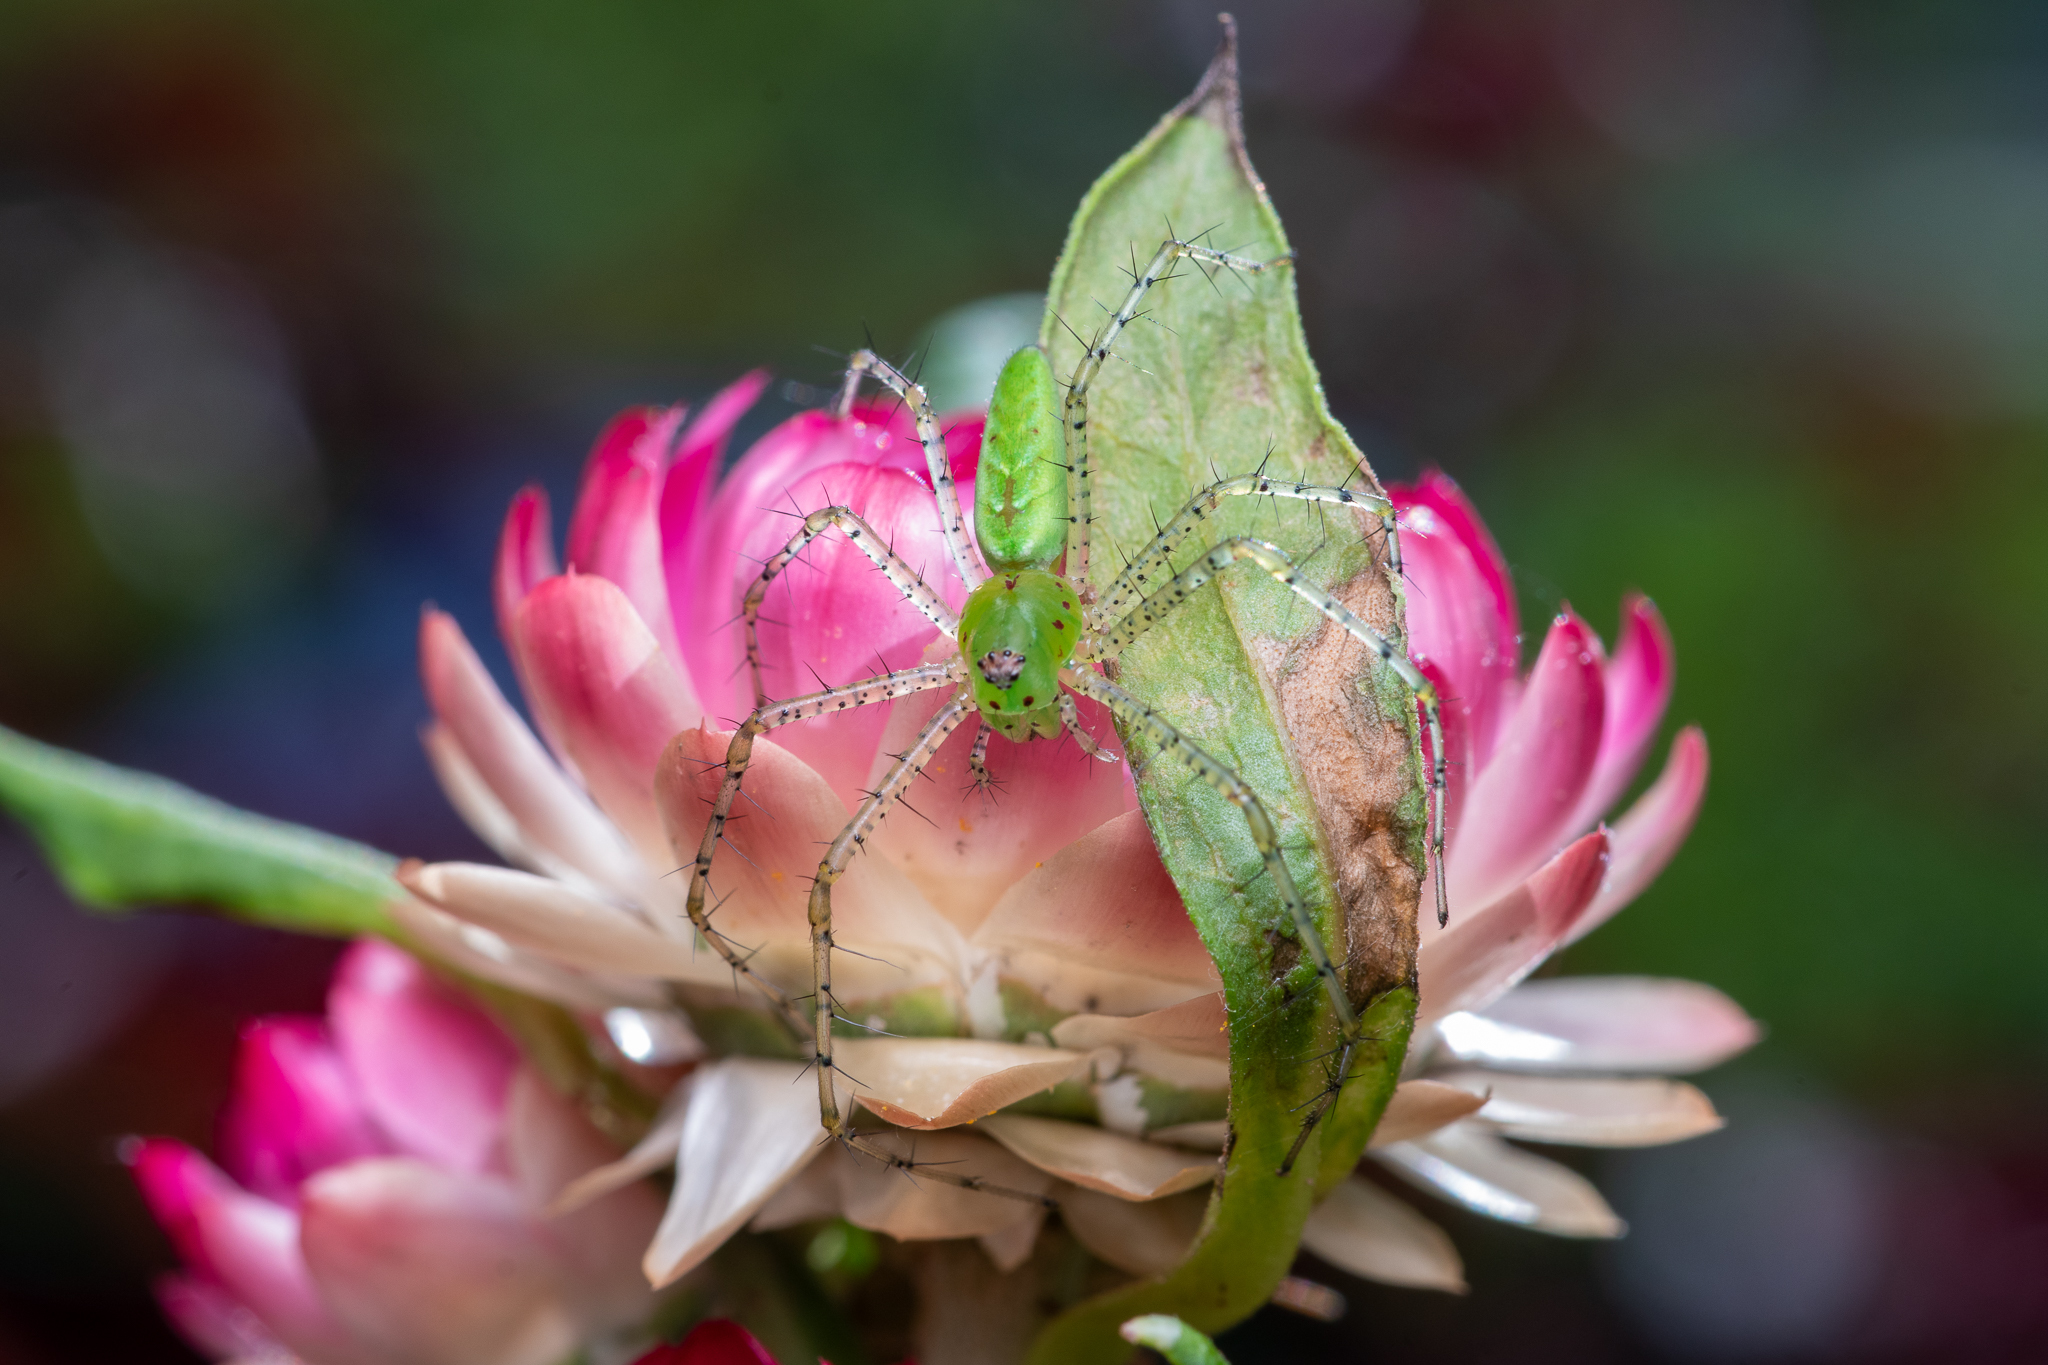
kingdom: Animalia
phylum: Arthropoda
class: Arachnida
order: Araneae
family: Oxyopidae
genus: Peucetia
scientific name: Peucetia viridans
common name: Lynx spiders
